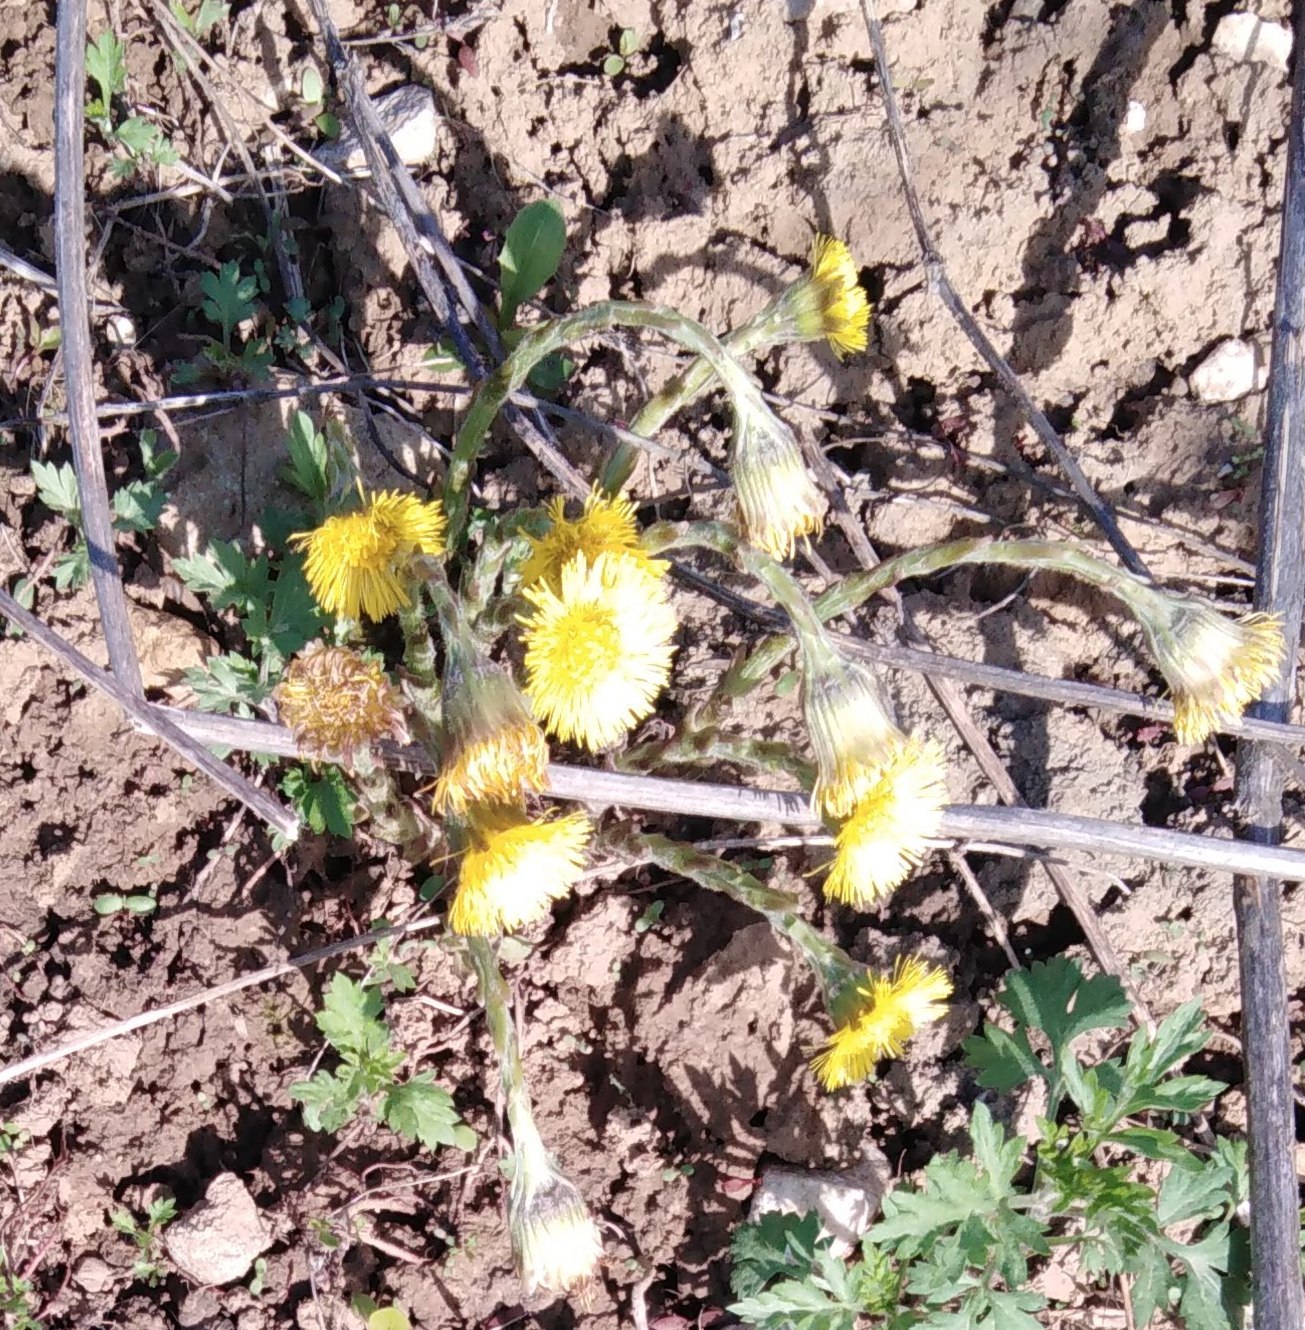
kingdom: Plantae
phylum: Tracheophyta
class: Magnoliopsida
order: Asterales
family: Asteraceae
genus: Tussilago
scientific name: Tussilago farfara
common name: Coltsfoot
